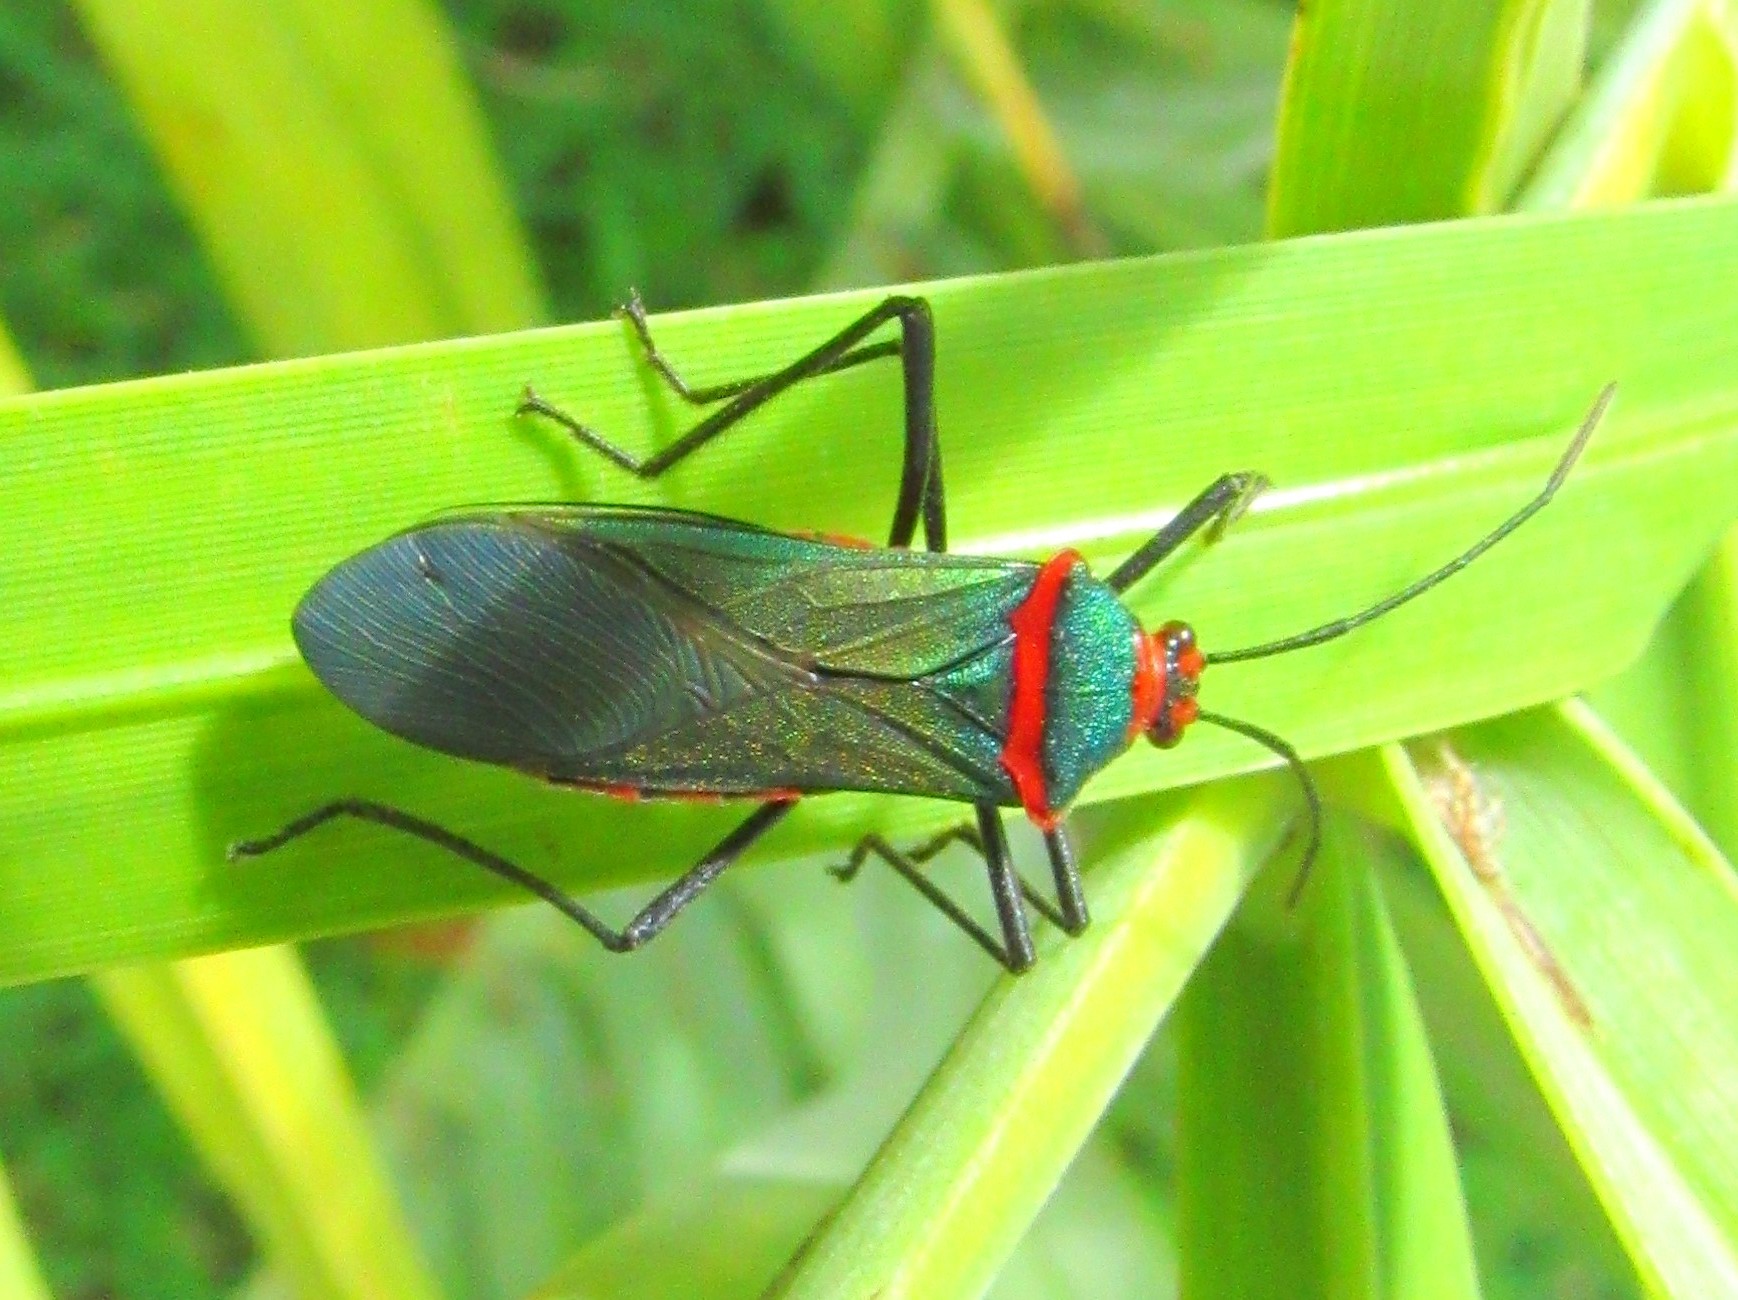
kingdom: Animalia
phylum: Arthropoda
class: Insecta
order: Hemiptera
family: Coreidae
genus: Sphictyrtus
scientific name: Sphictyrtus chrysis
